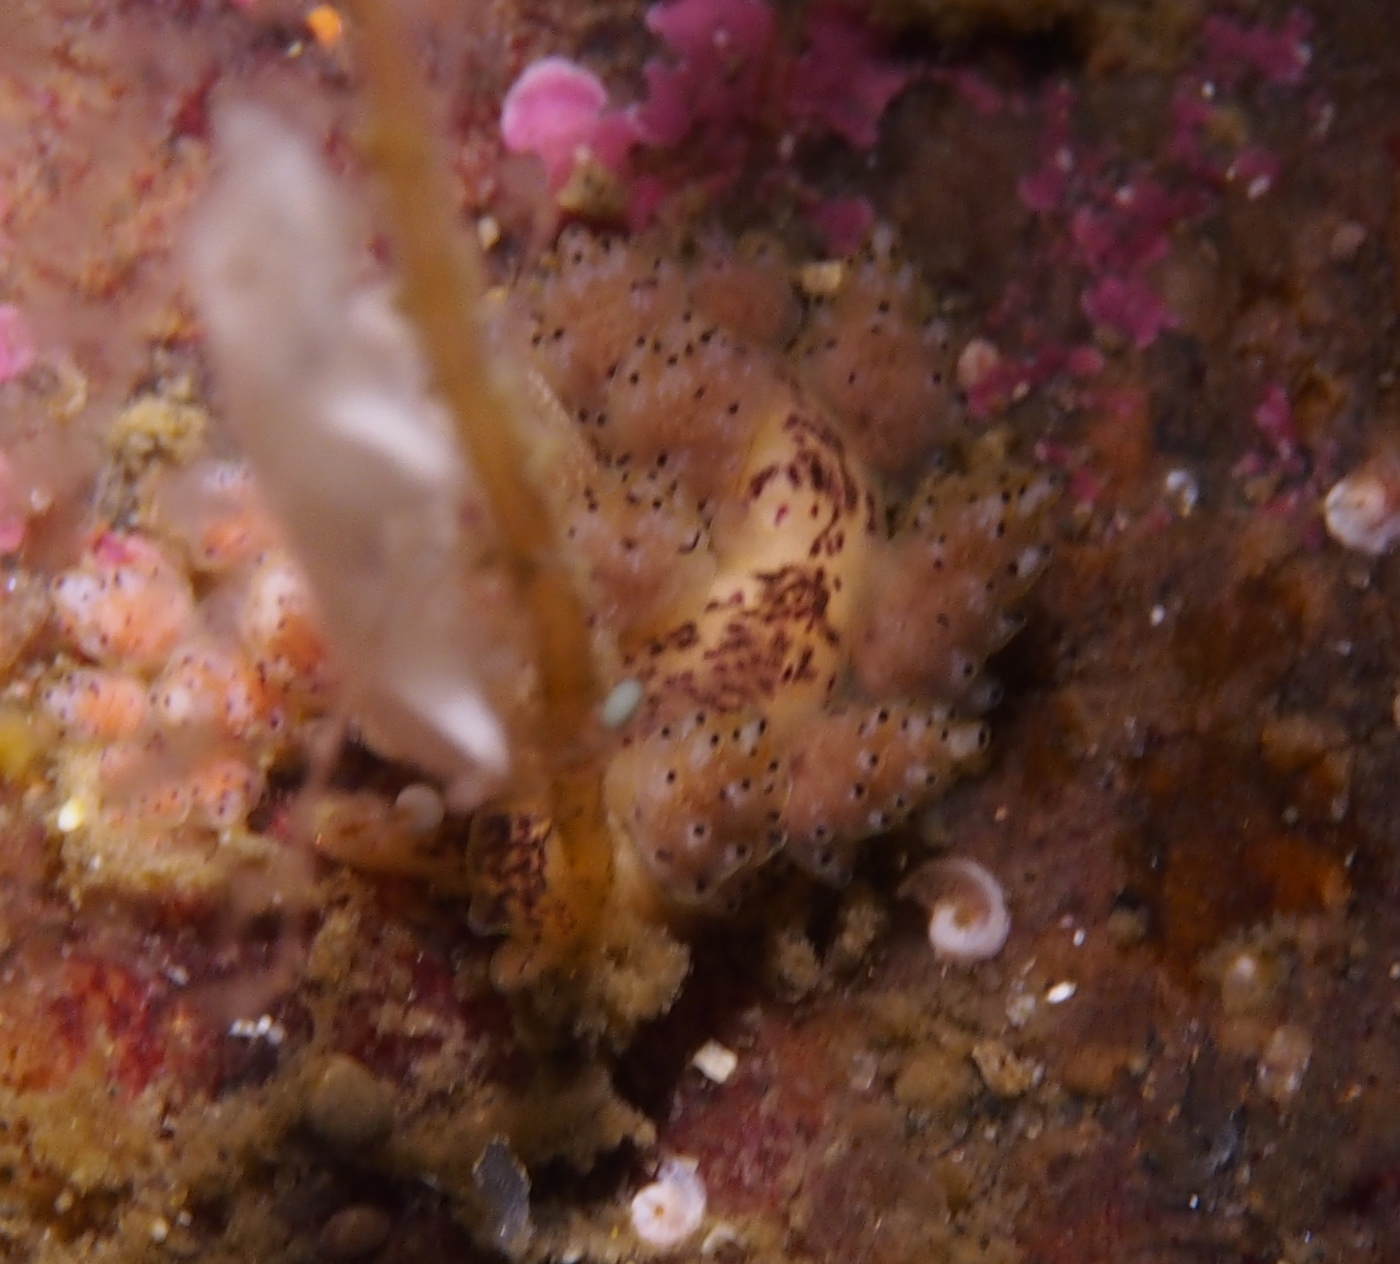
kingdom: Animalia
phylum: Mollusca
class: Gastropoda
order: Nudibranchia
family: Dotidae
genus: Doto
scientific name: Doto dunnei
